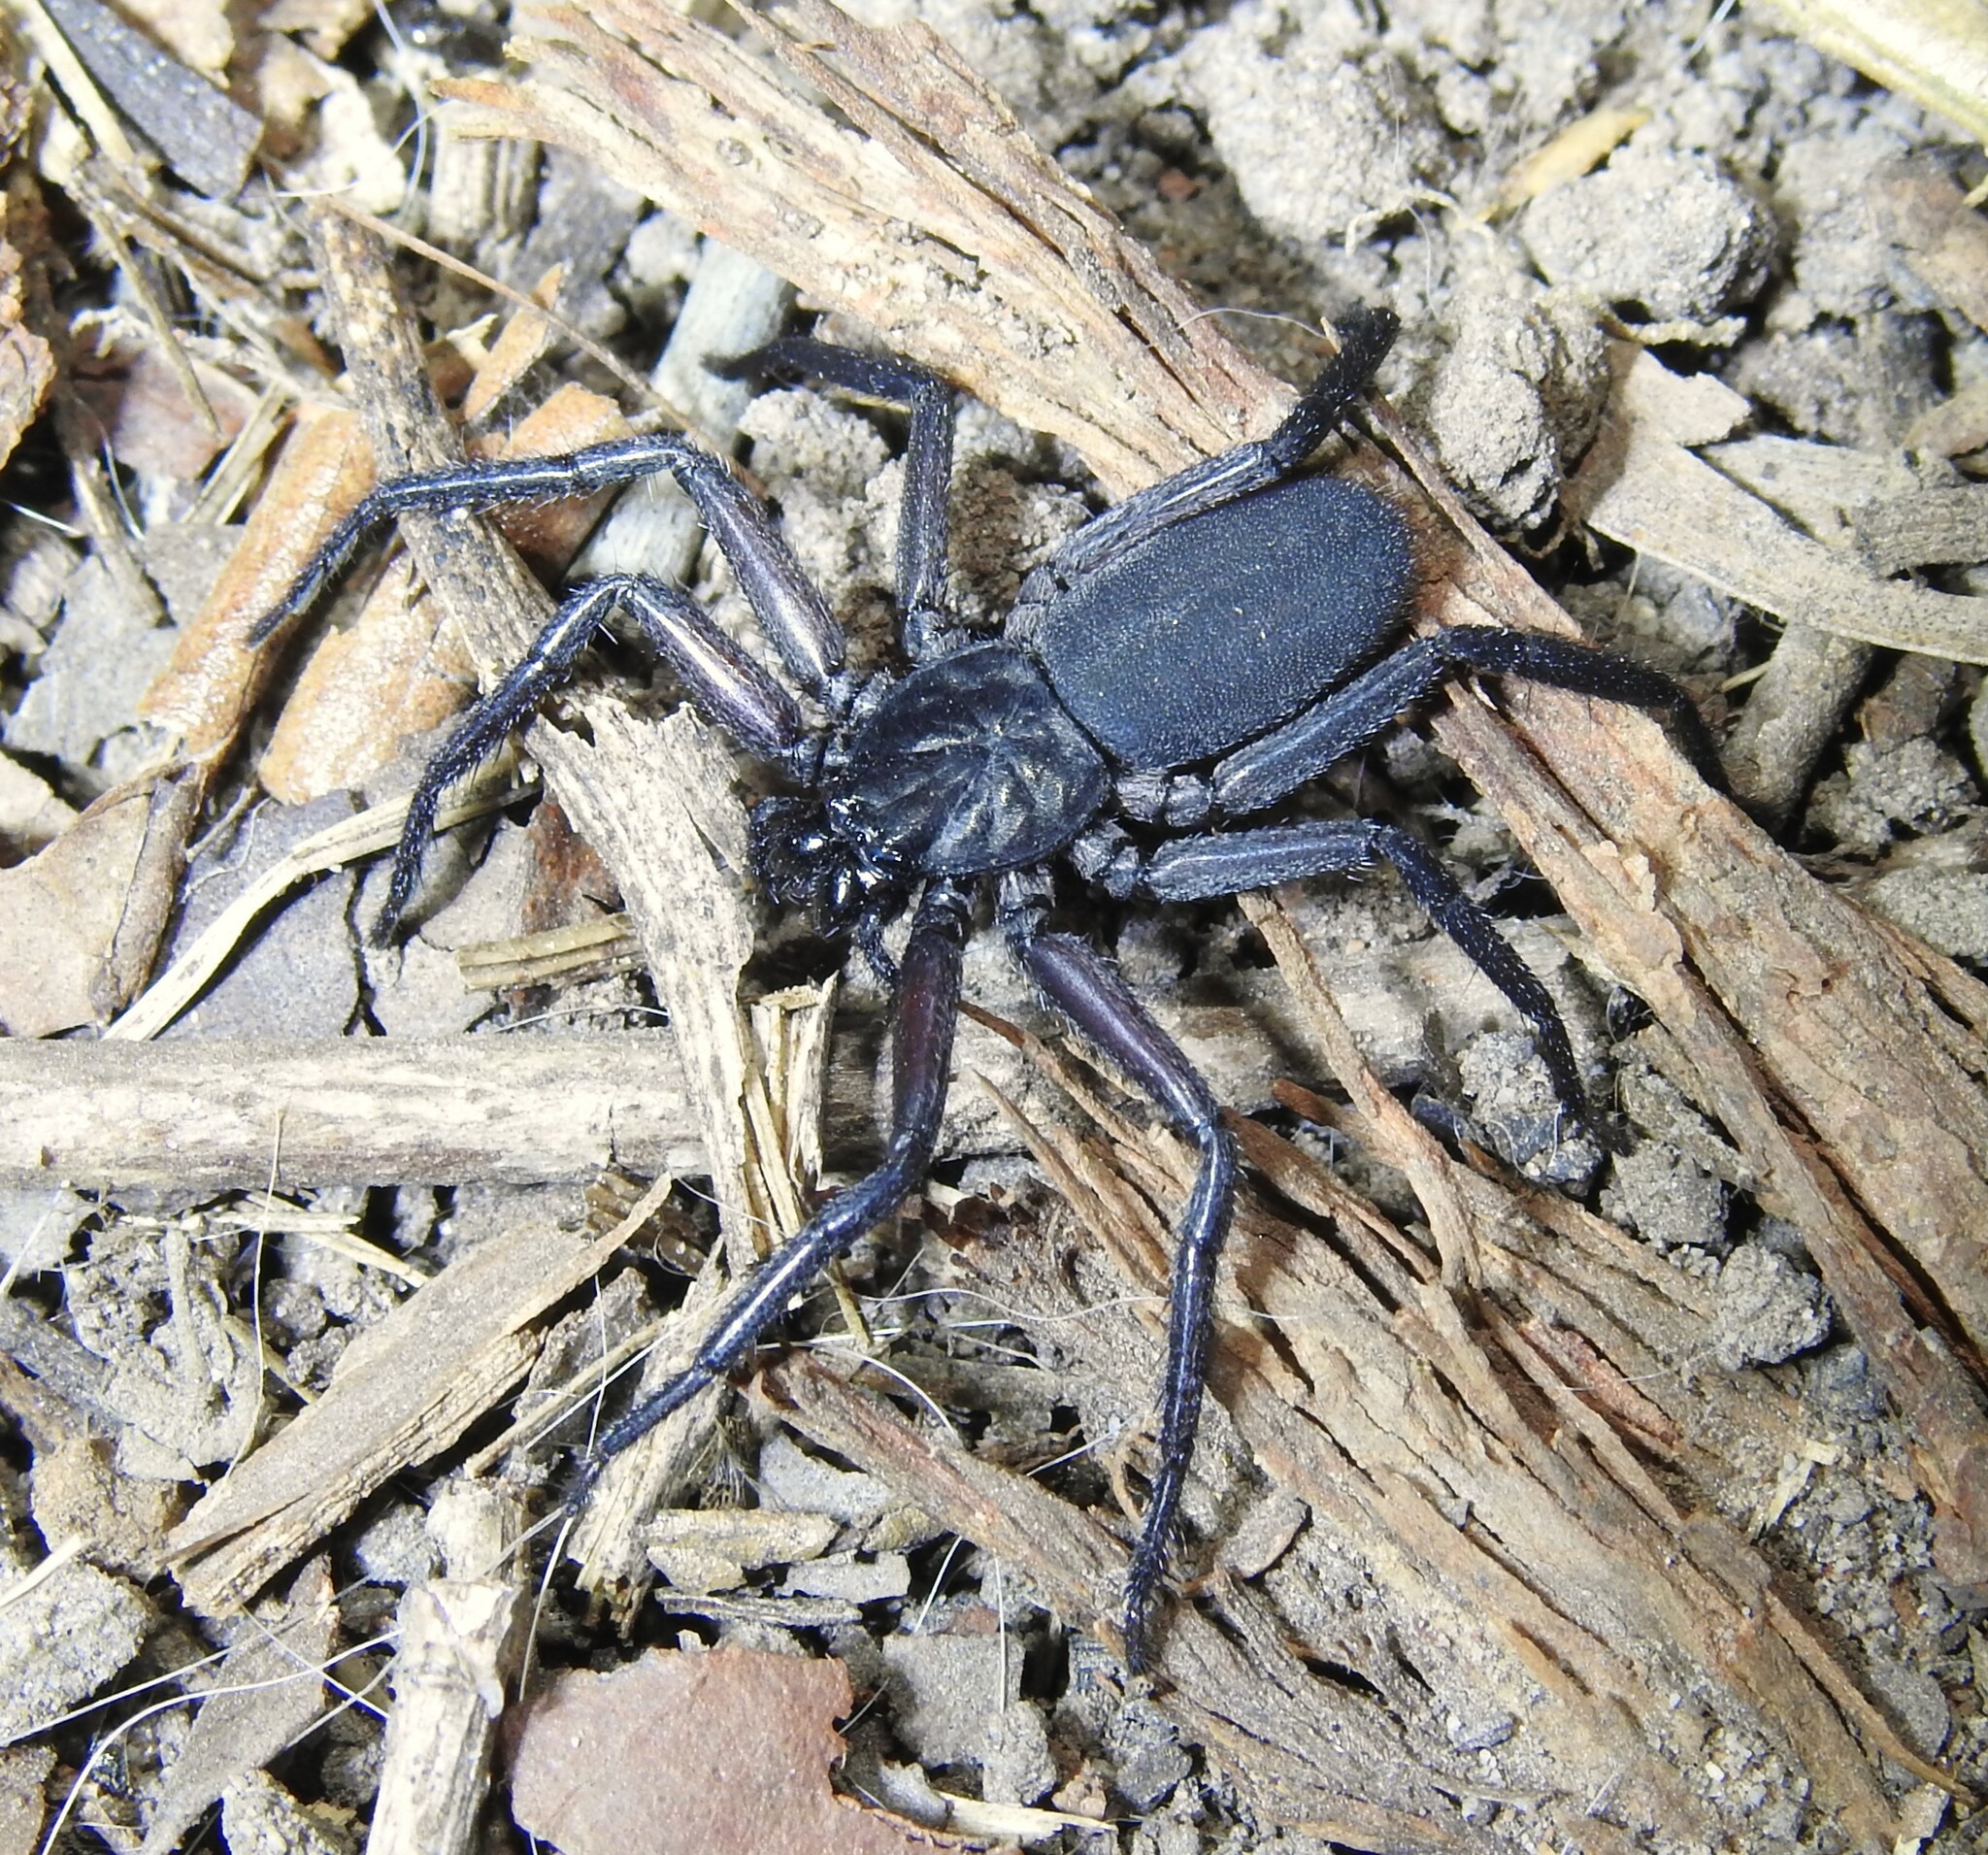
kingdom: Animalia
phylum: Arthropoda
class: Arachnida
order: Araneae
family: Trachycosmidae
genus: Rebilus
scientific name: Rebilus lugubris
